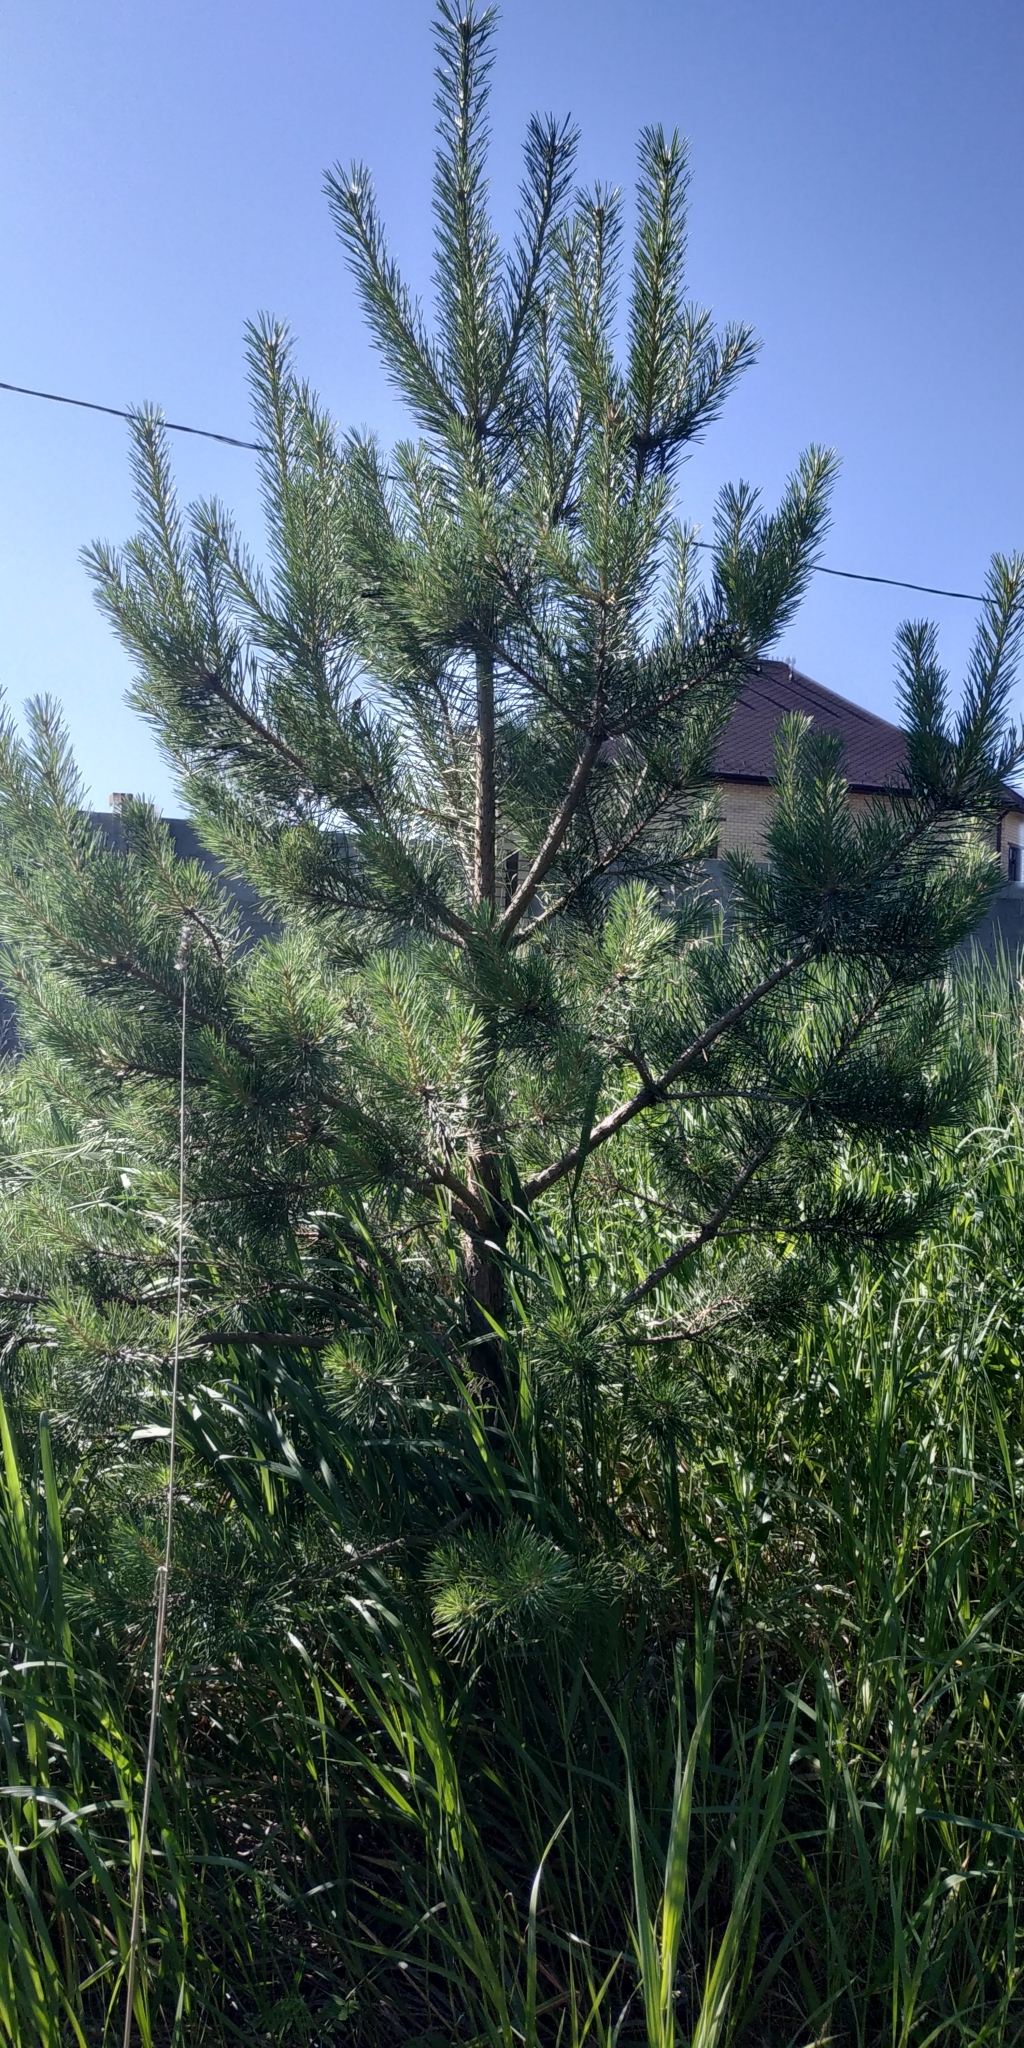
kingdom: Plantae
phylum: Tracheophyta
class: Pinopsida
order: Pinales
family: Pinaceae
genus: Pinus
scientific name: Pinus sylvestris
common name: Scots pine
